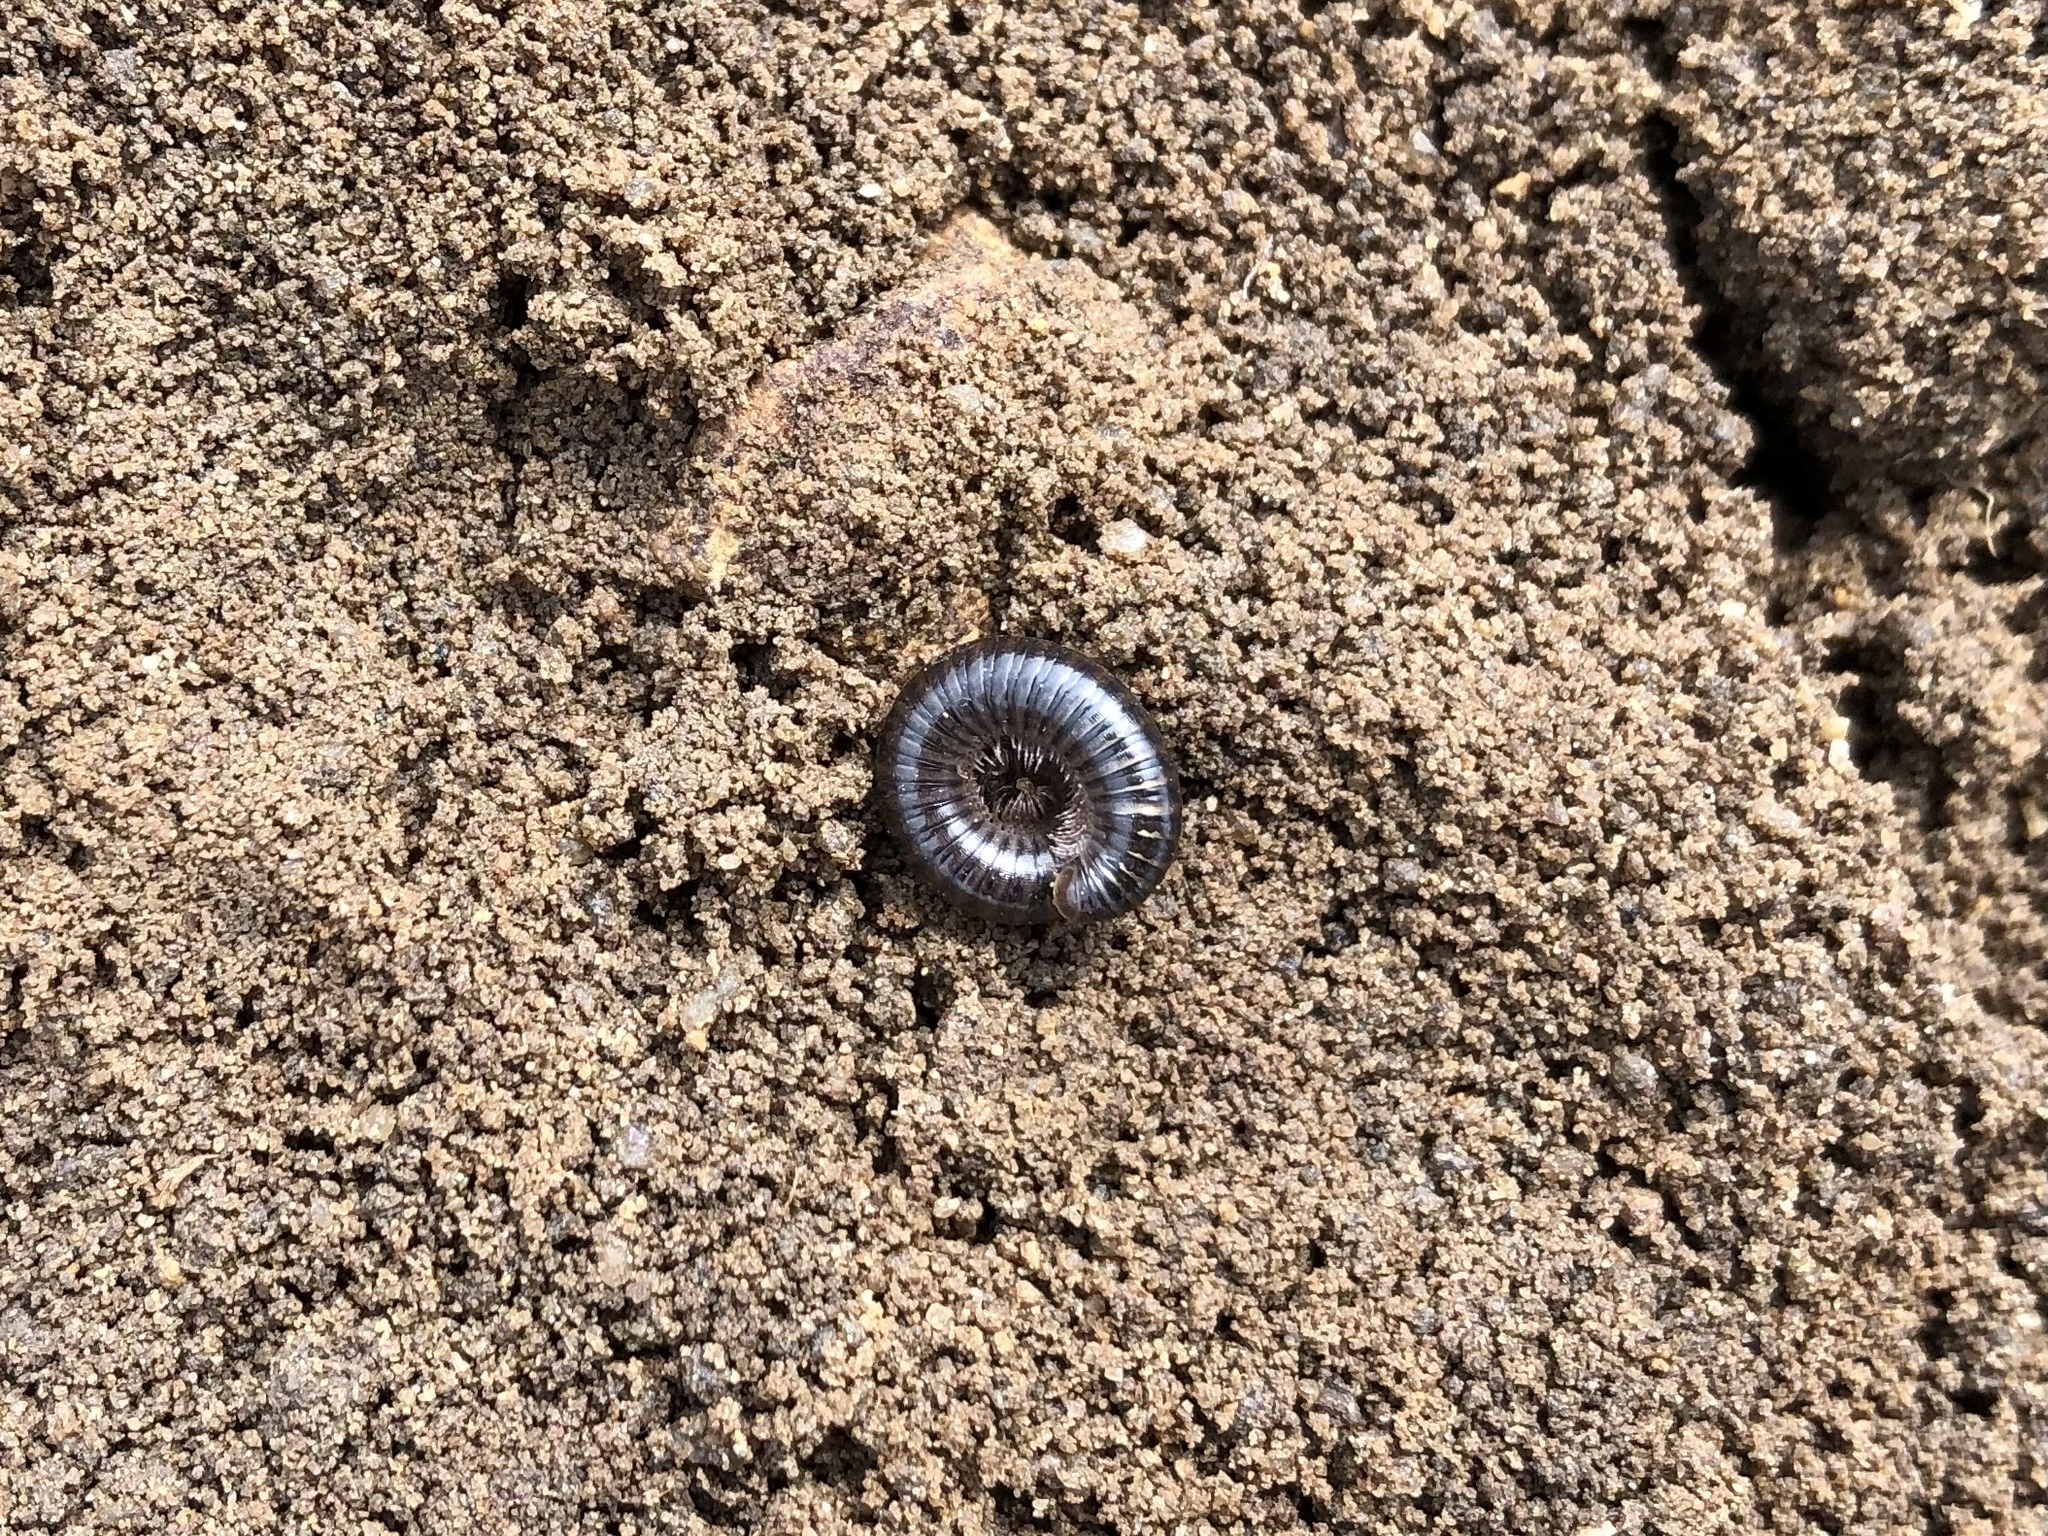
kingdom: Animalia
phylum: Arthropoda
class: Diplopoda
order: Julida
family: Julidae
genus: Cylindroiulus
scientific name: Cylindroiulus caeruleocinctus
